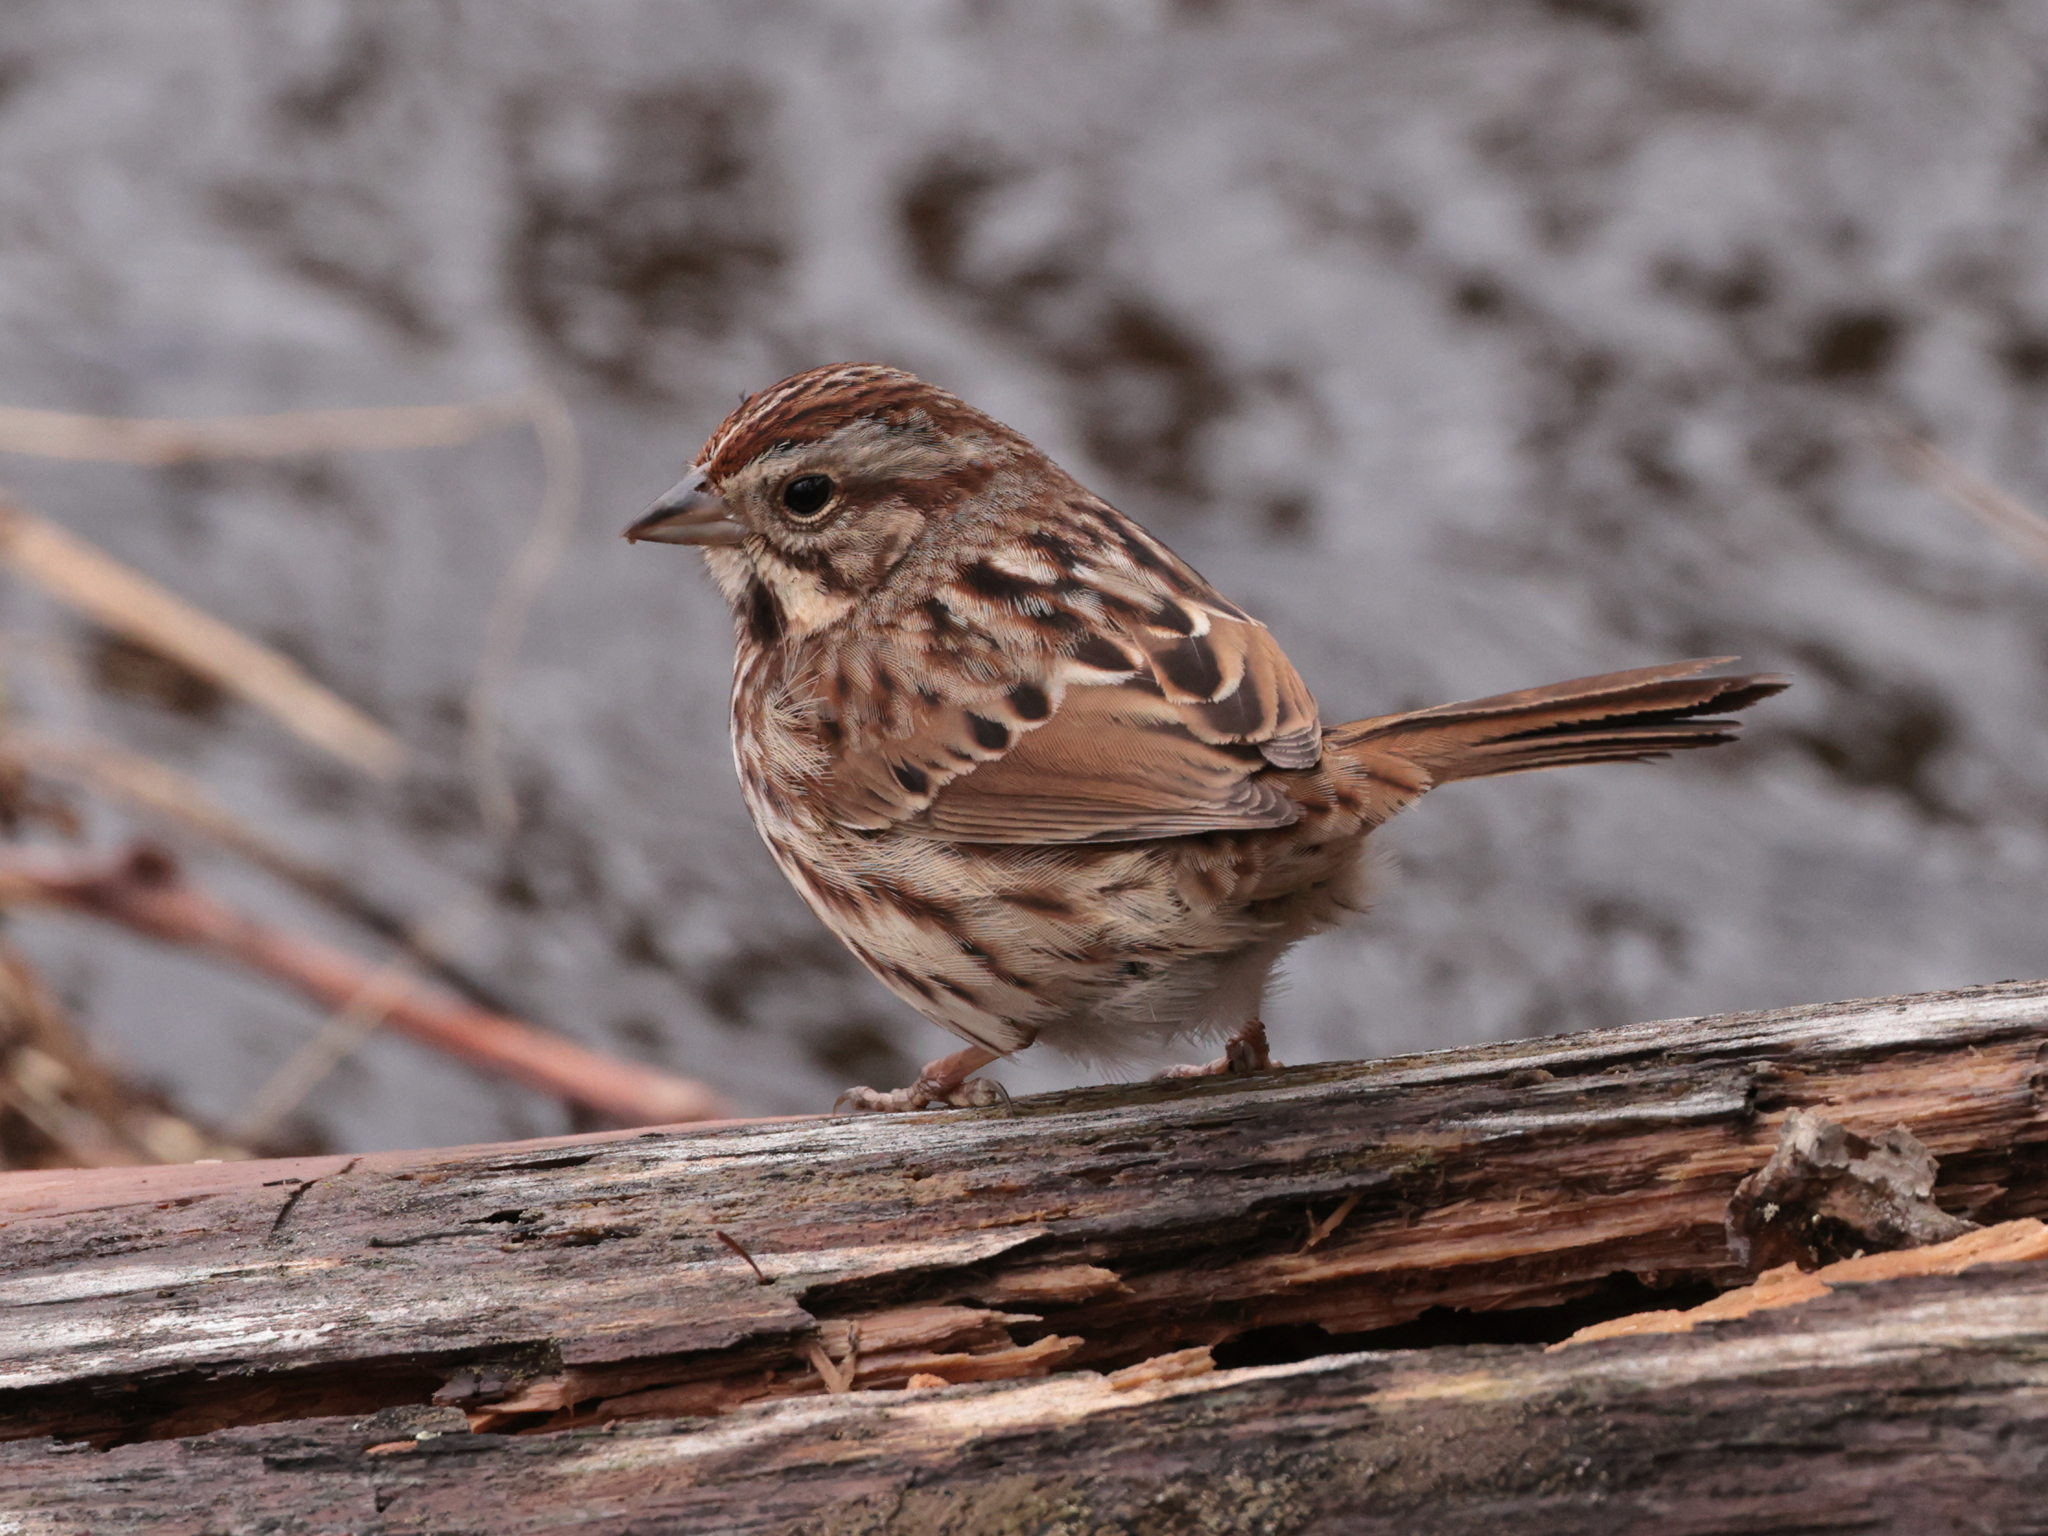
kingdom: Animalia
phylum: Chordata
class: Aves
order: Passeriformes
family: Passerellidae
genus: Melospiza
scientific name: Melospiza melodia
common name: Song sparrow
